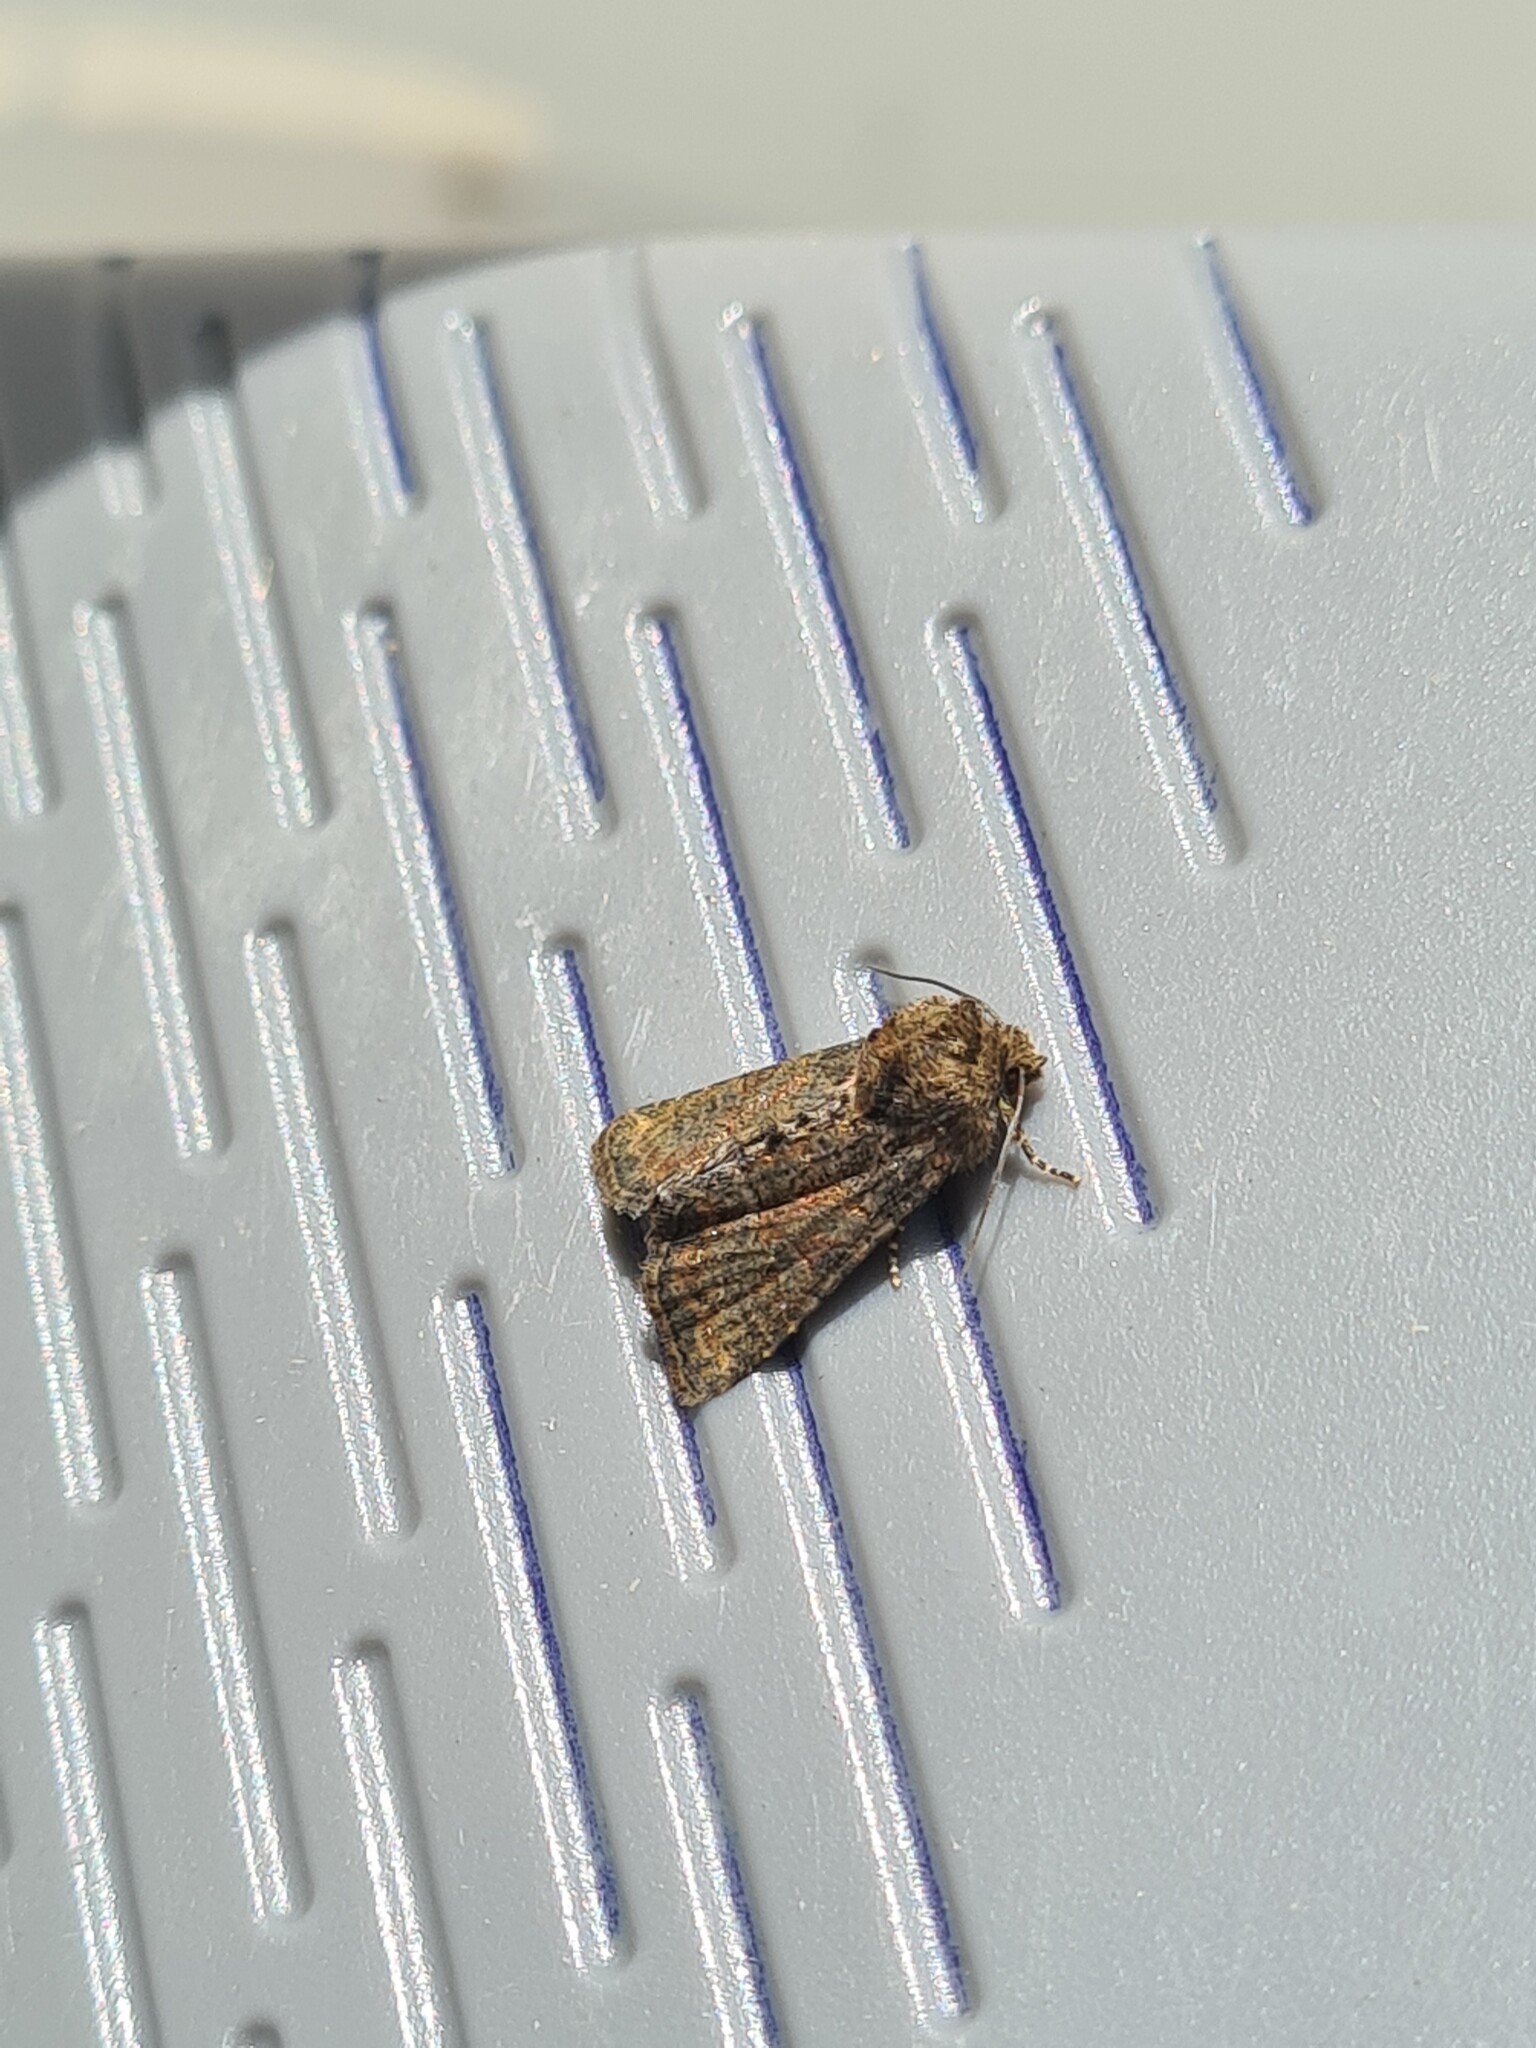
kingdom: Animalia
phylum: Arthropoda
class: Insecta
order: Lepidoptera
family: Noctuidae
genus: Mesoligia
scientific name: Mesoligia furuncula
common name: Cloaked minor
